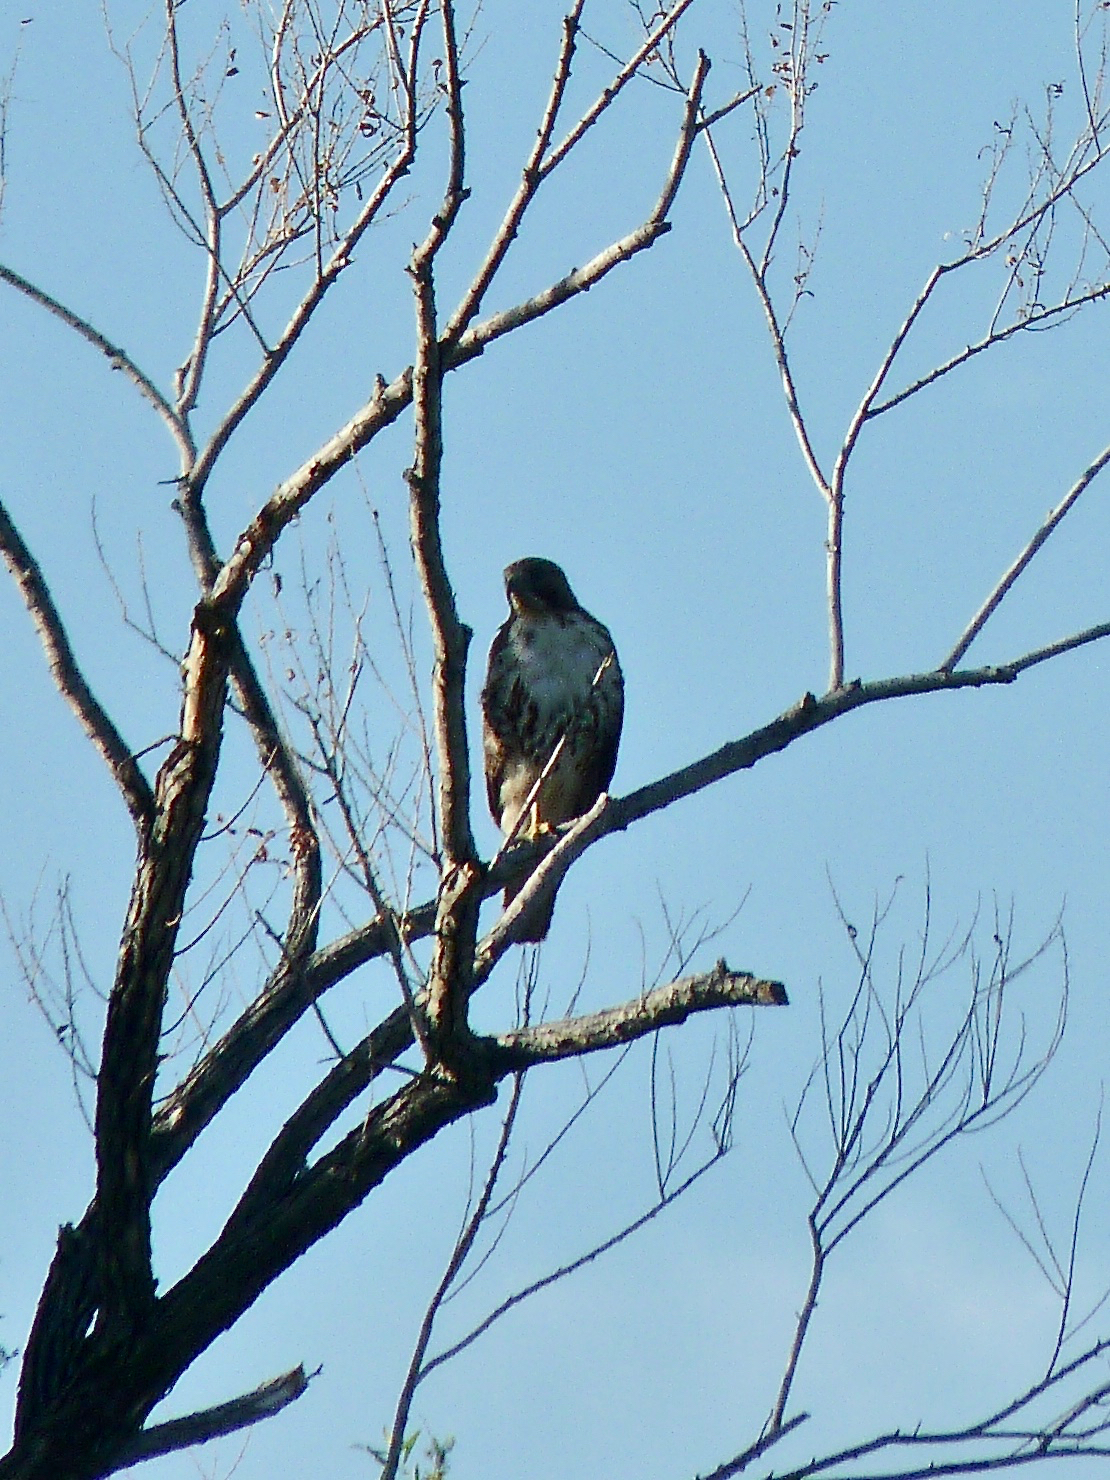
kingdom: Animalia
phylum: Chordata
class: Aves
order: Accipitriformes
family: Accipitridae
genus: Buteo
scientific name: Buteo jamaicensis
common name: Red-tailed hawk
